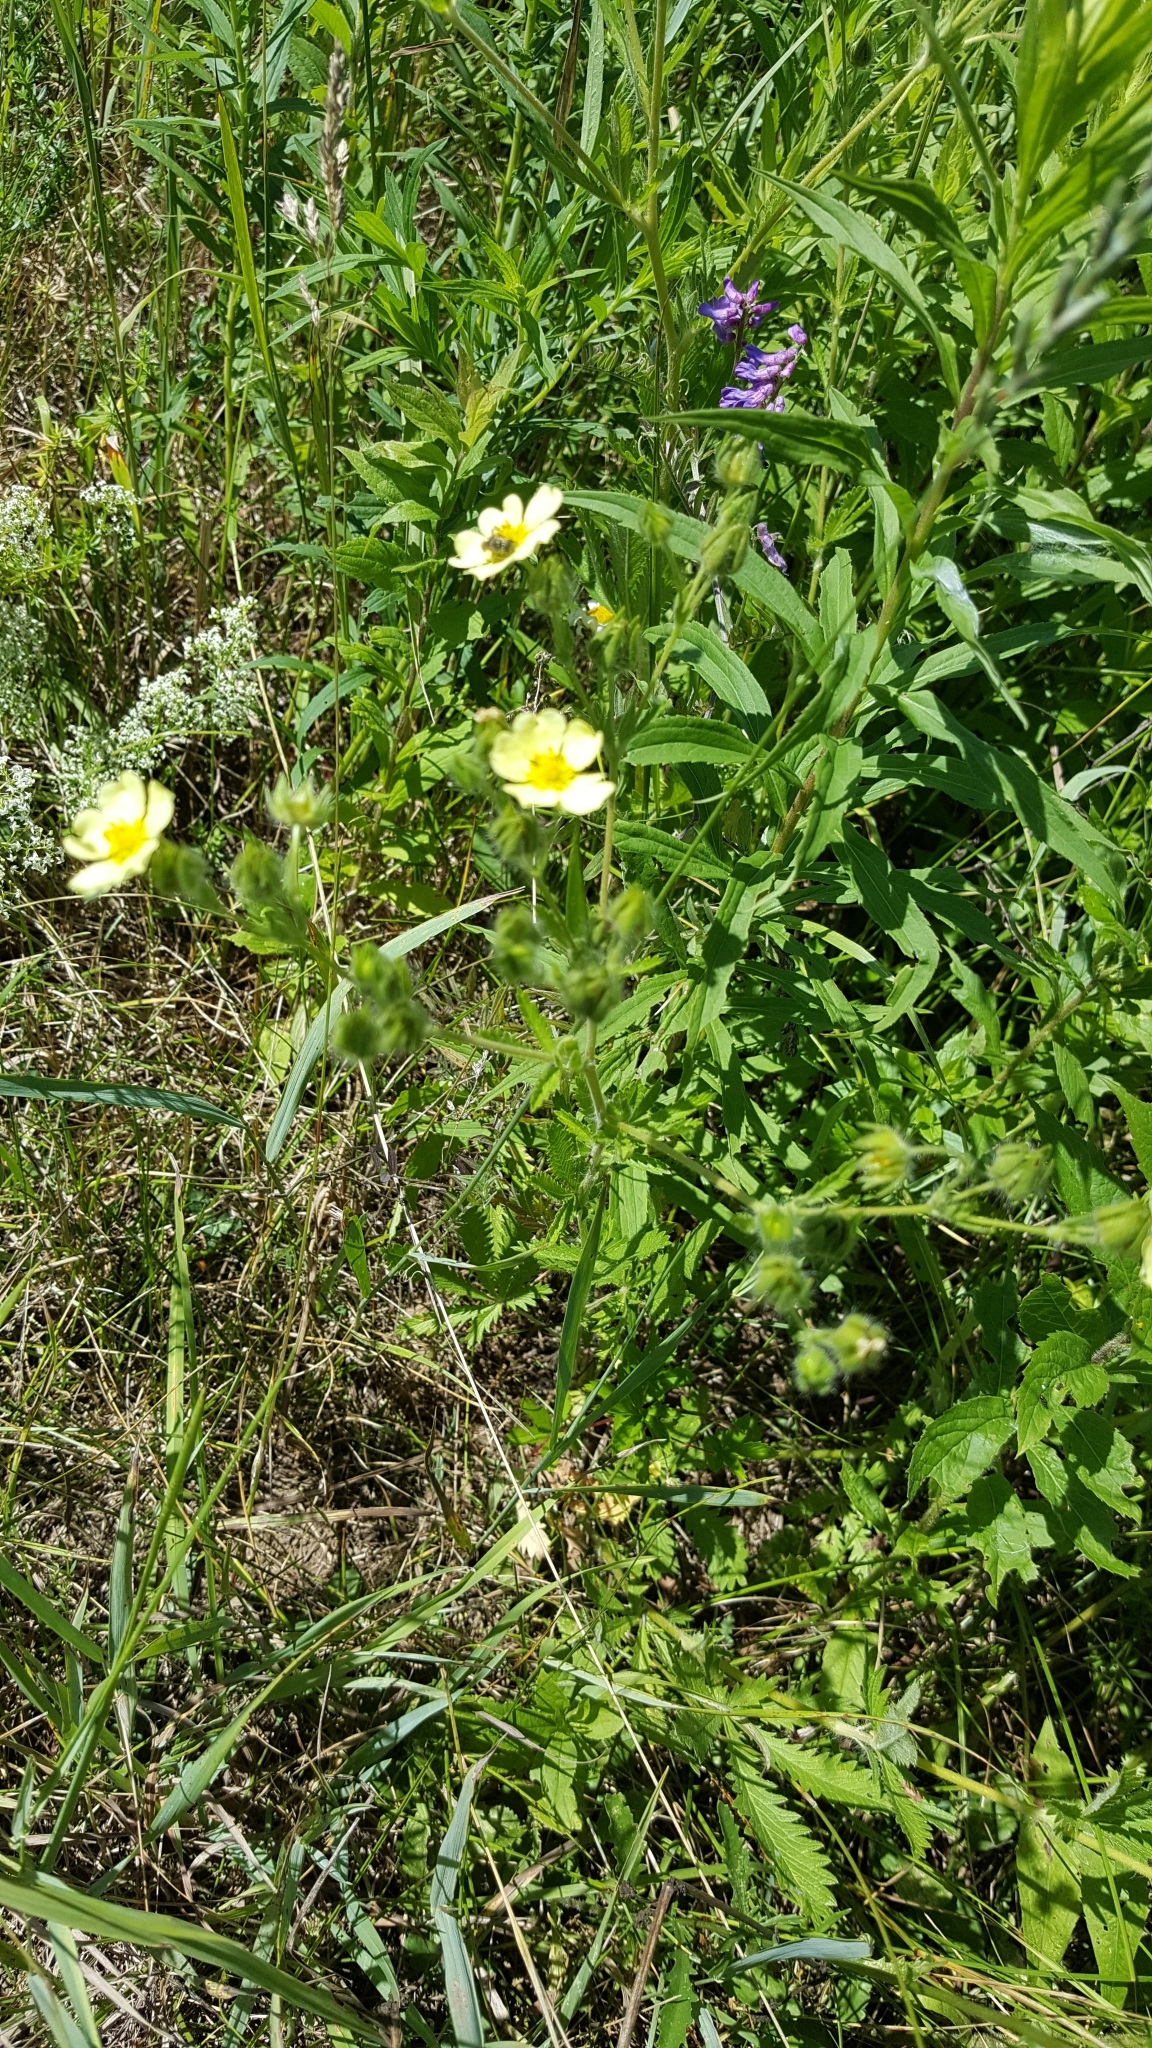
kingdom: Plantae
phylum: Tracheophyta
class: Magnoliopsida
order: Rosales
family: Rosaceae
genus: Potentilla
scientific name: Potentilla recta
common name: Sulphur cinquefoil
